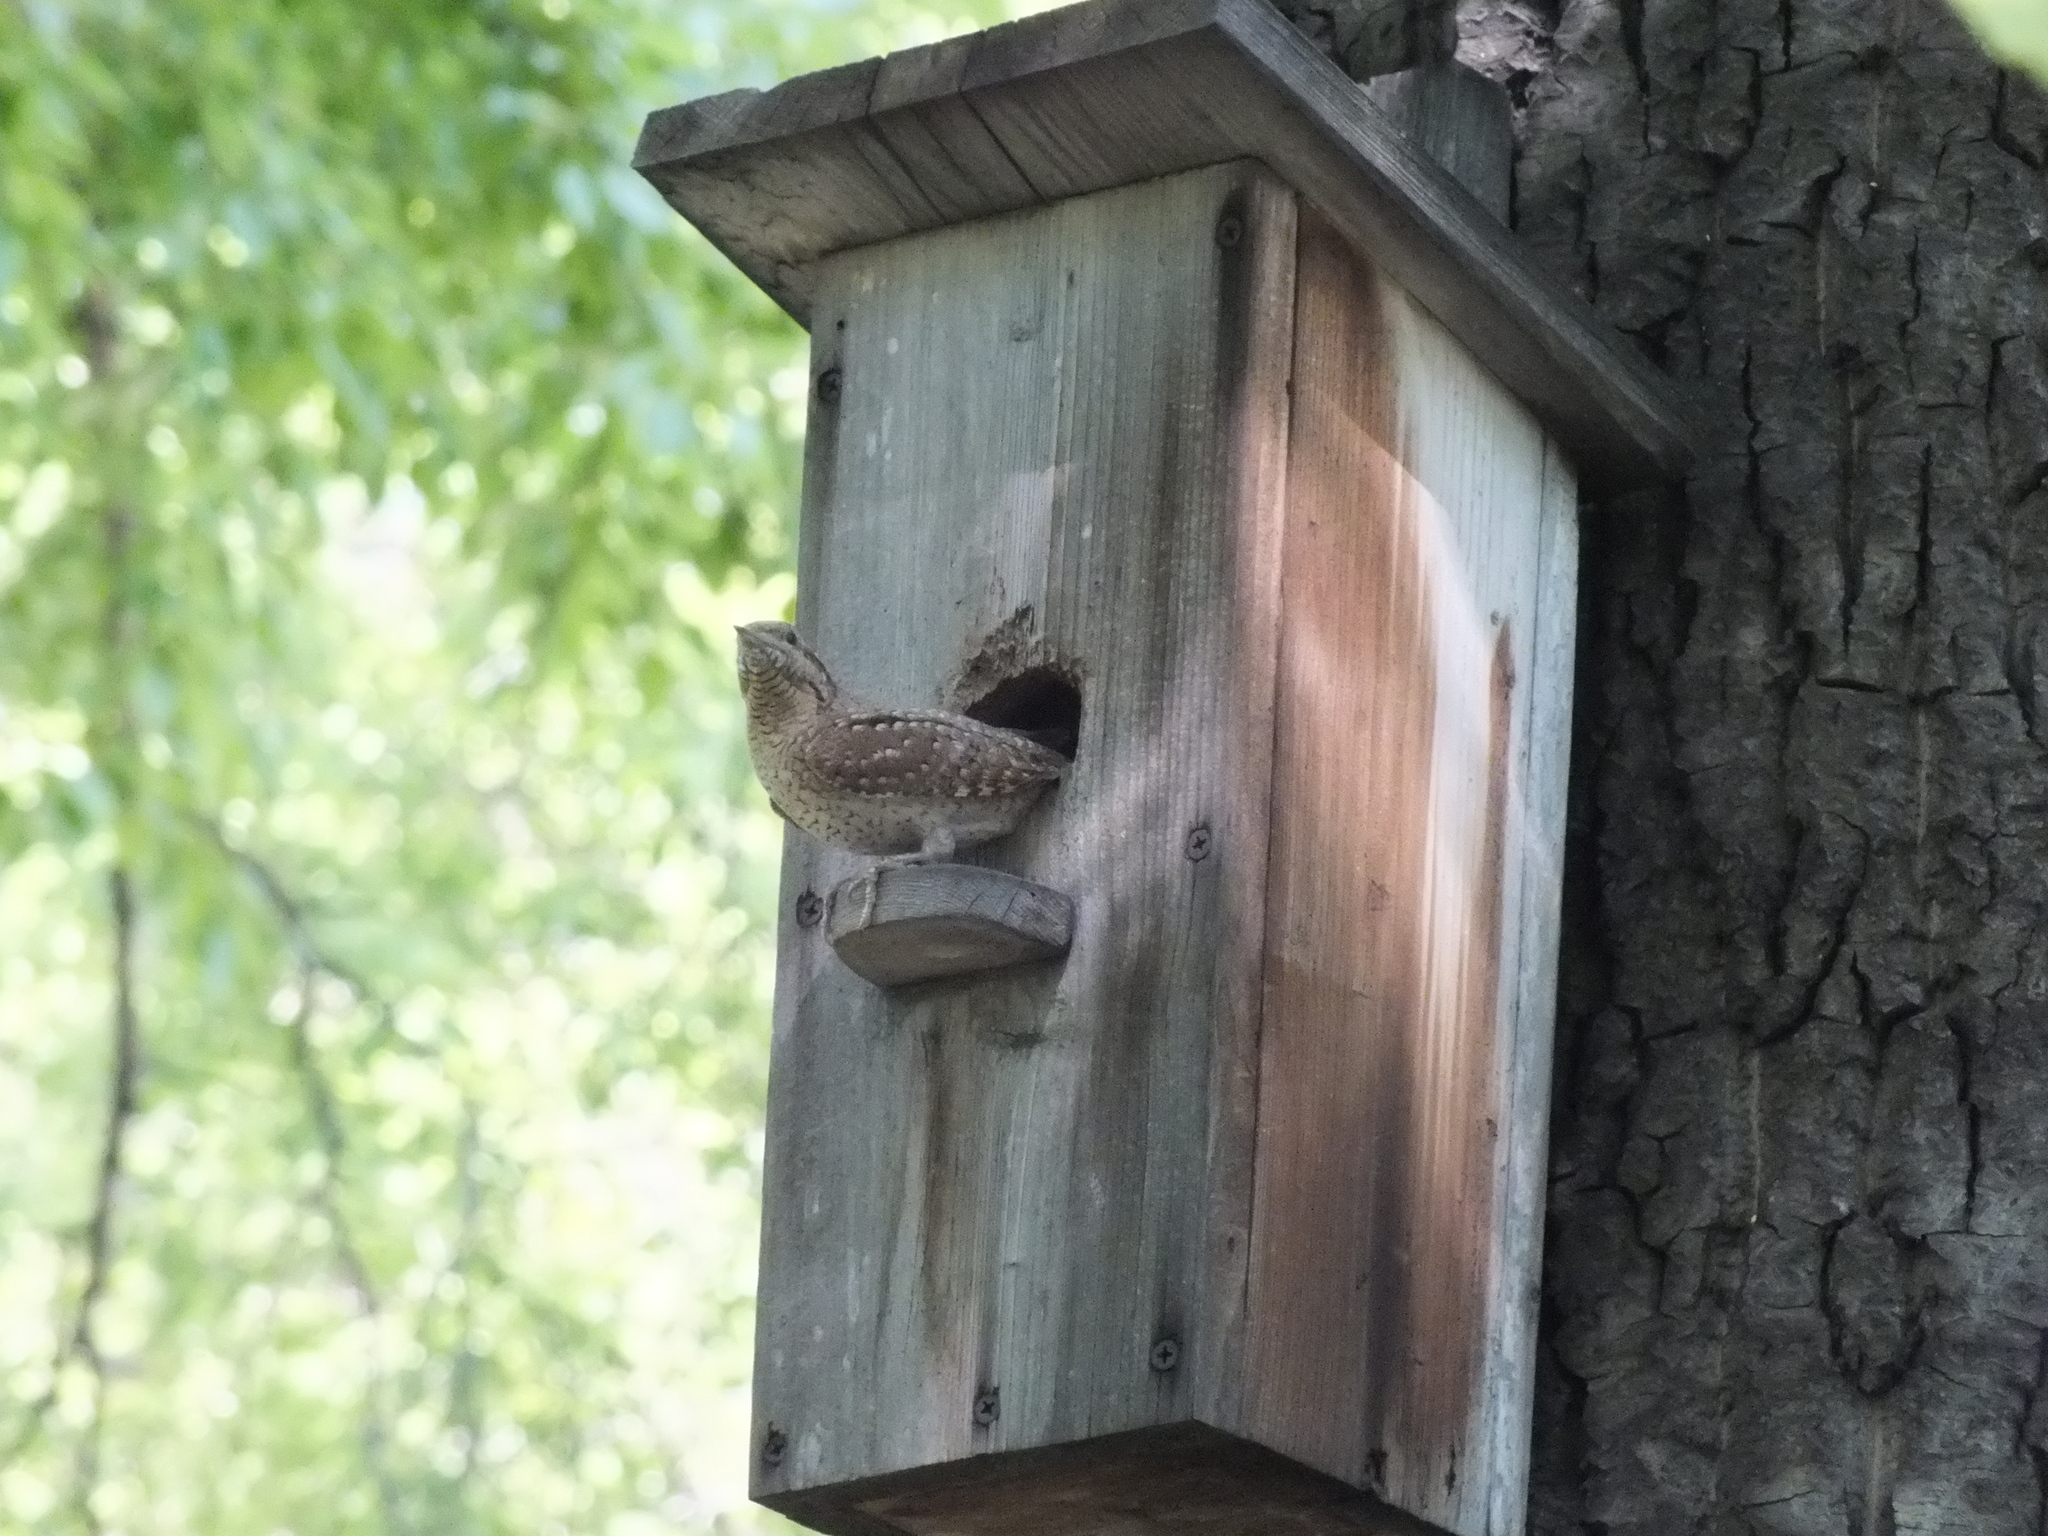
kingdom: Animalia
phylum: Chordata
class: Aves
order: Piciformes
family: Picidae
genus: Jynx
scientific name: Jynx torquilla
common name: Eurasian wryneck
